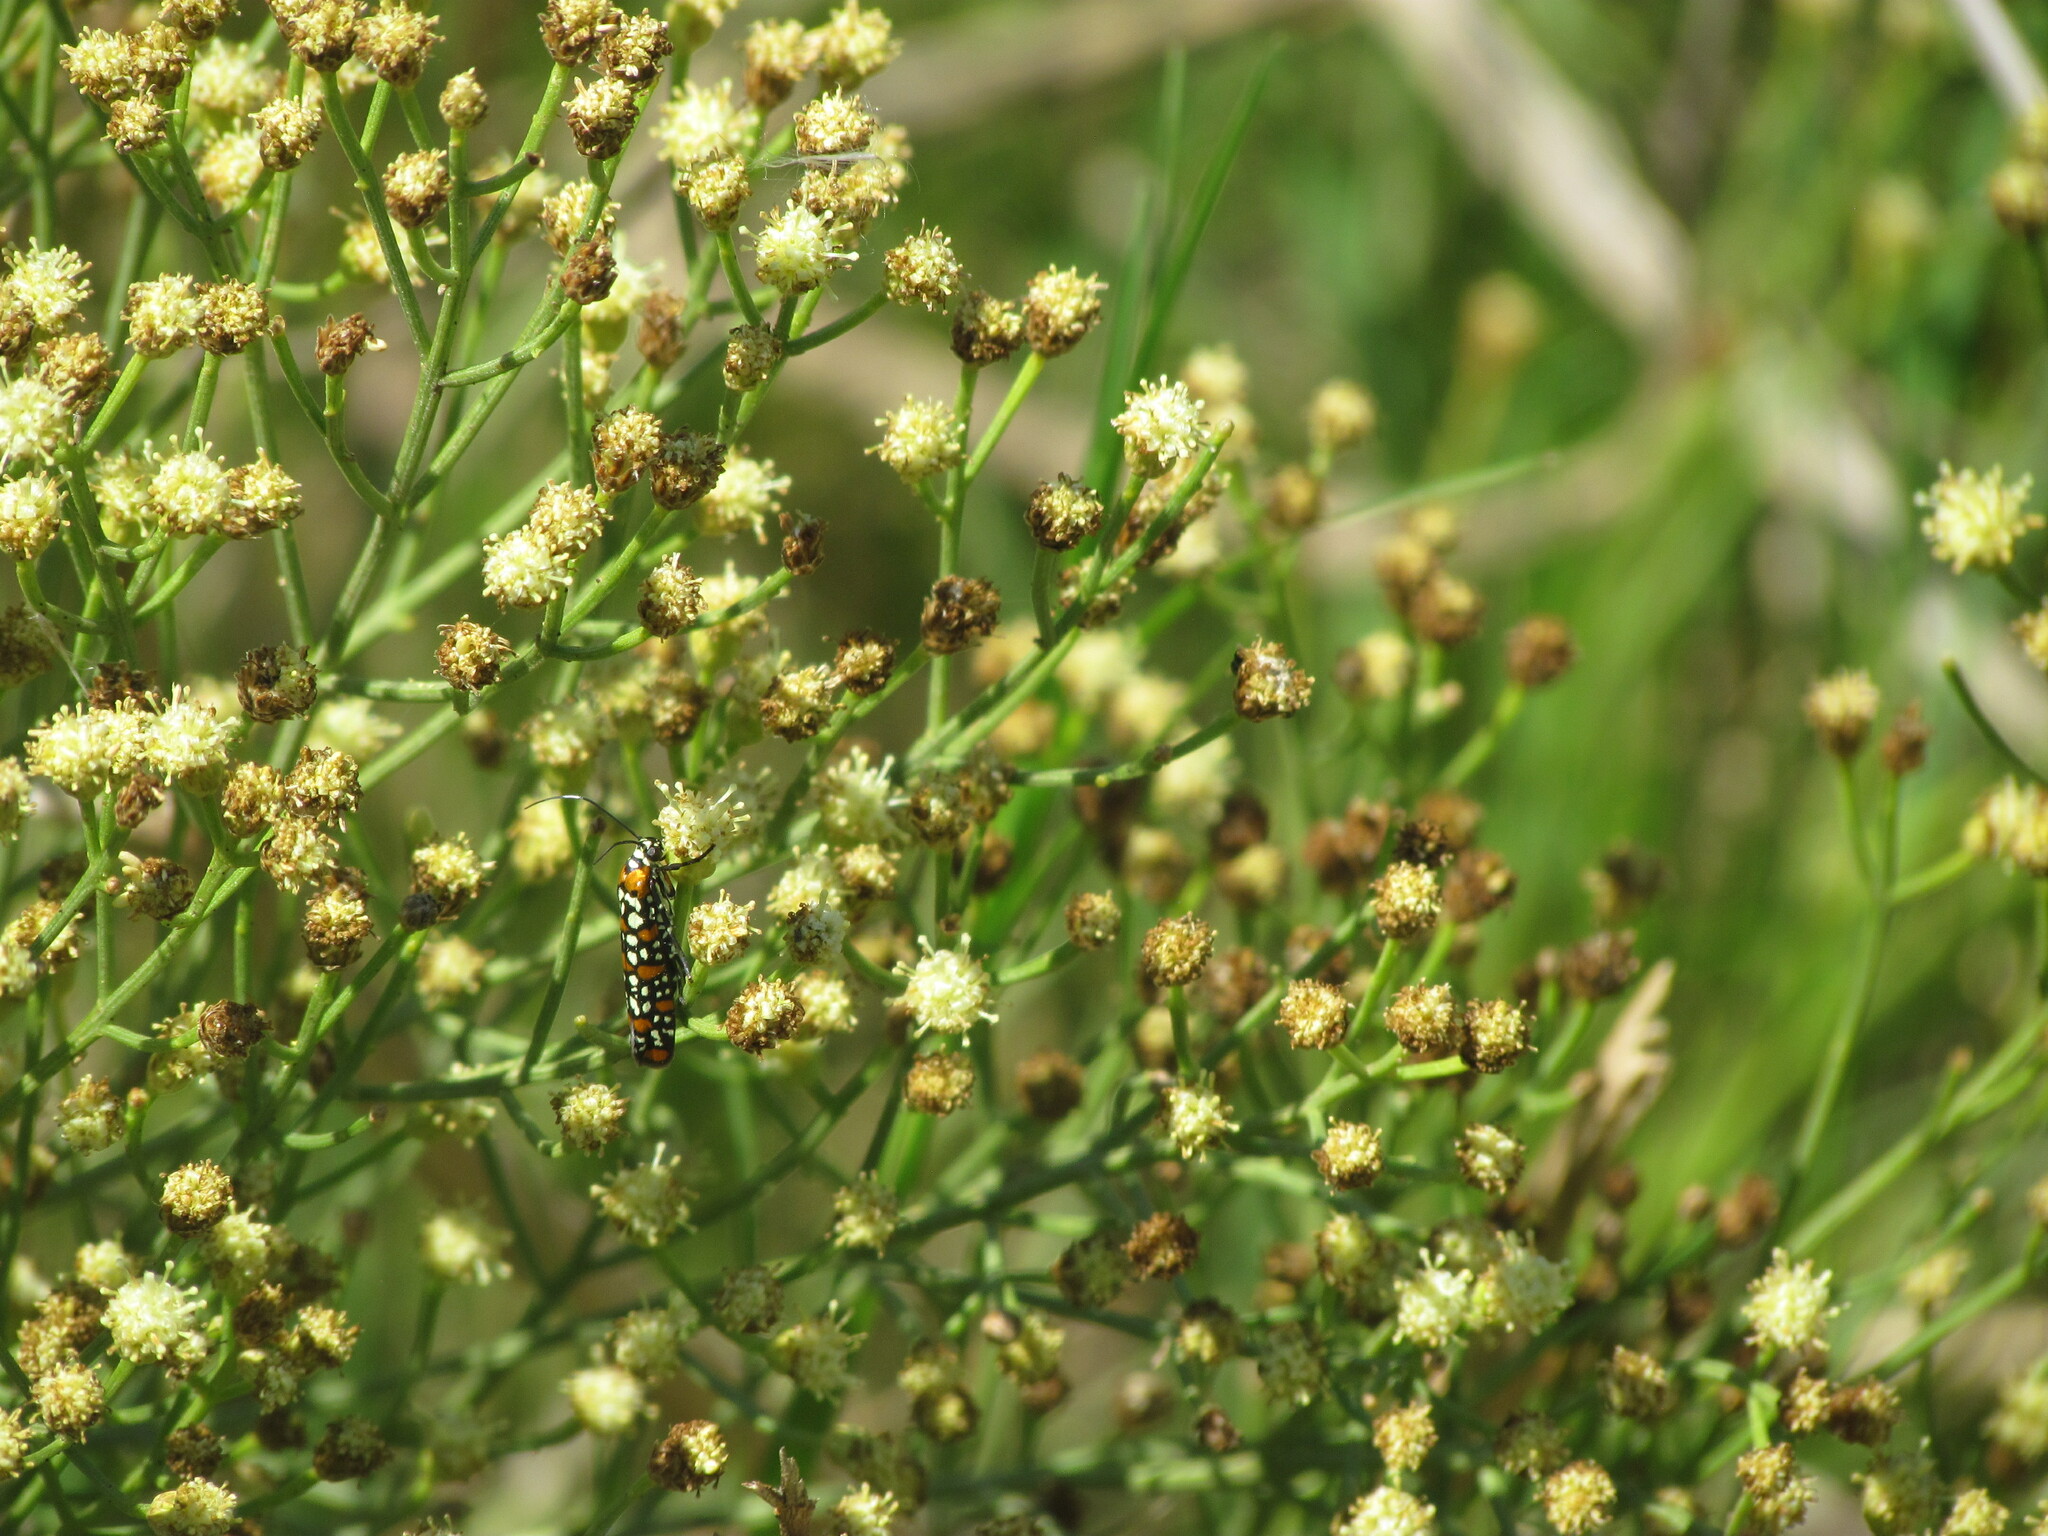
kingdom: Animalia
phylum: Arthropoda
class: Insecta
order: Lepidoptera
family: Attevidae
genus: Atteva
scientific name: Atteva punctella
